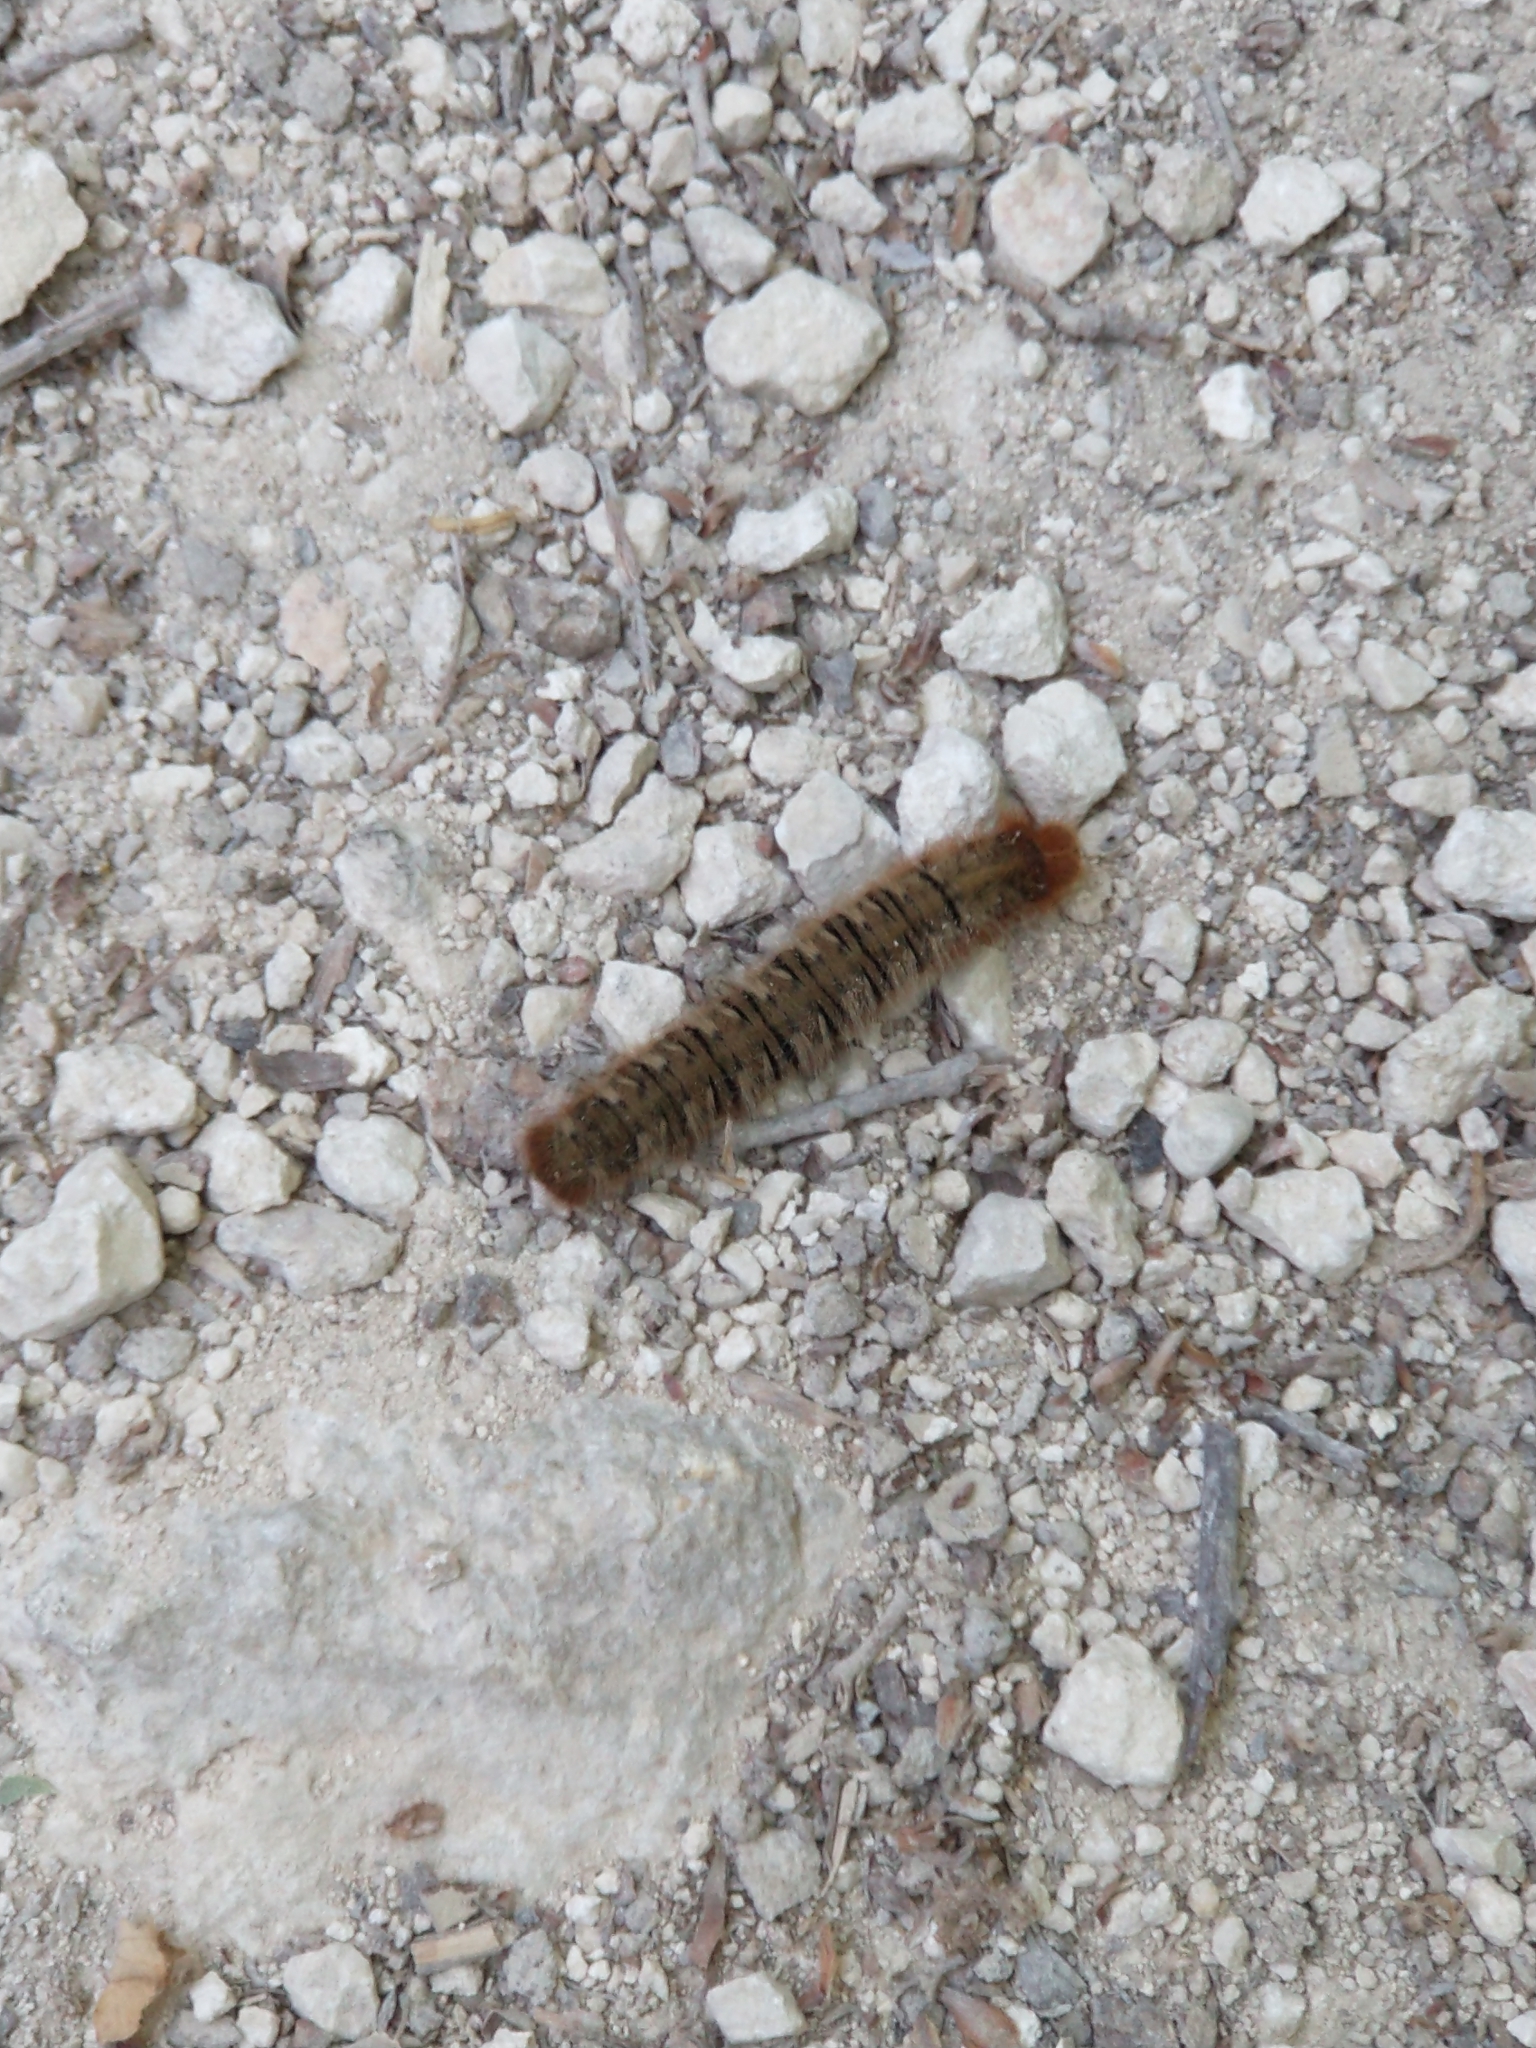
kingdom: Animalia
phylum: Arthropoda
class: Insecta
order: Lepidoptera
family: Lasiocampidae
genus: Lasiocampa
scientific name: Lasiocampa quercus
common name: Oak eggar
